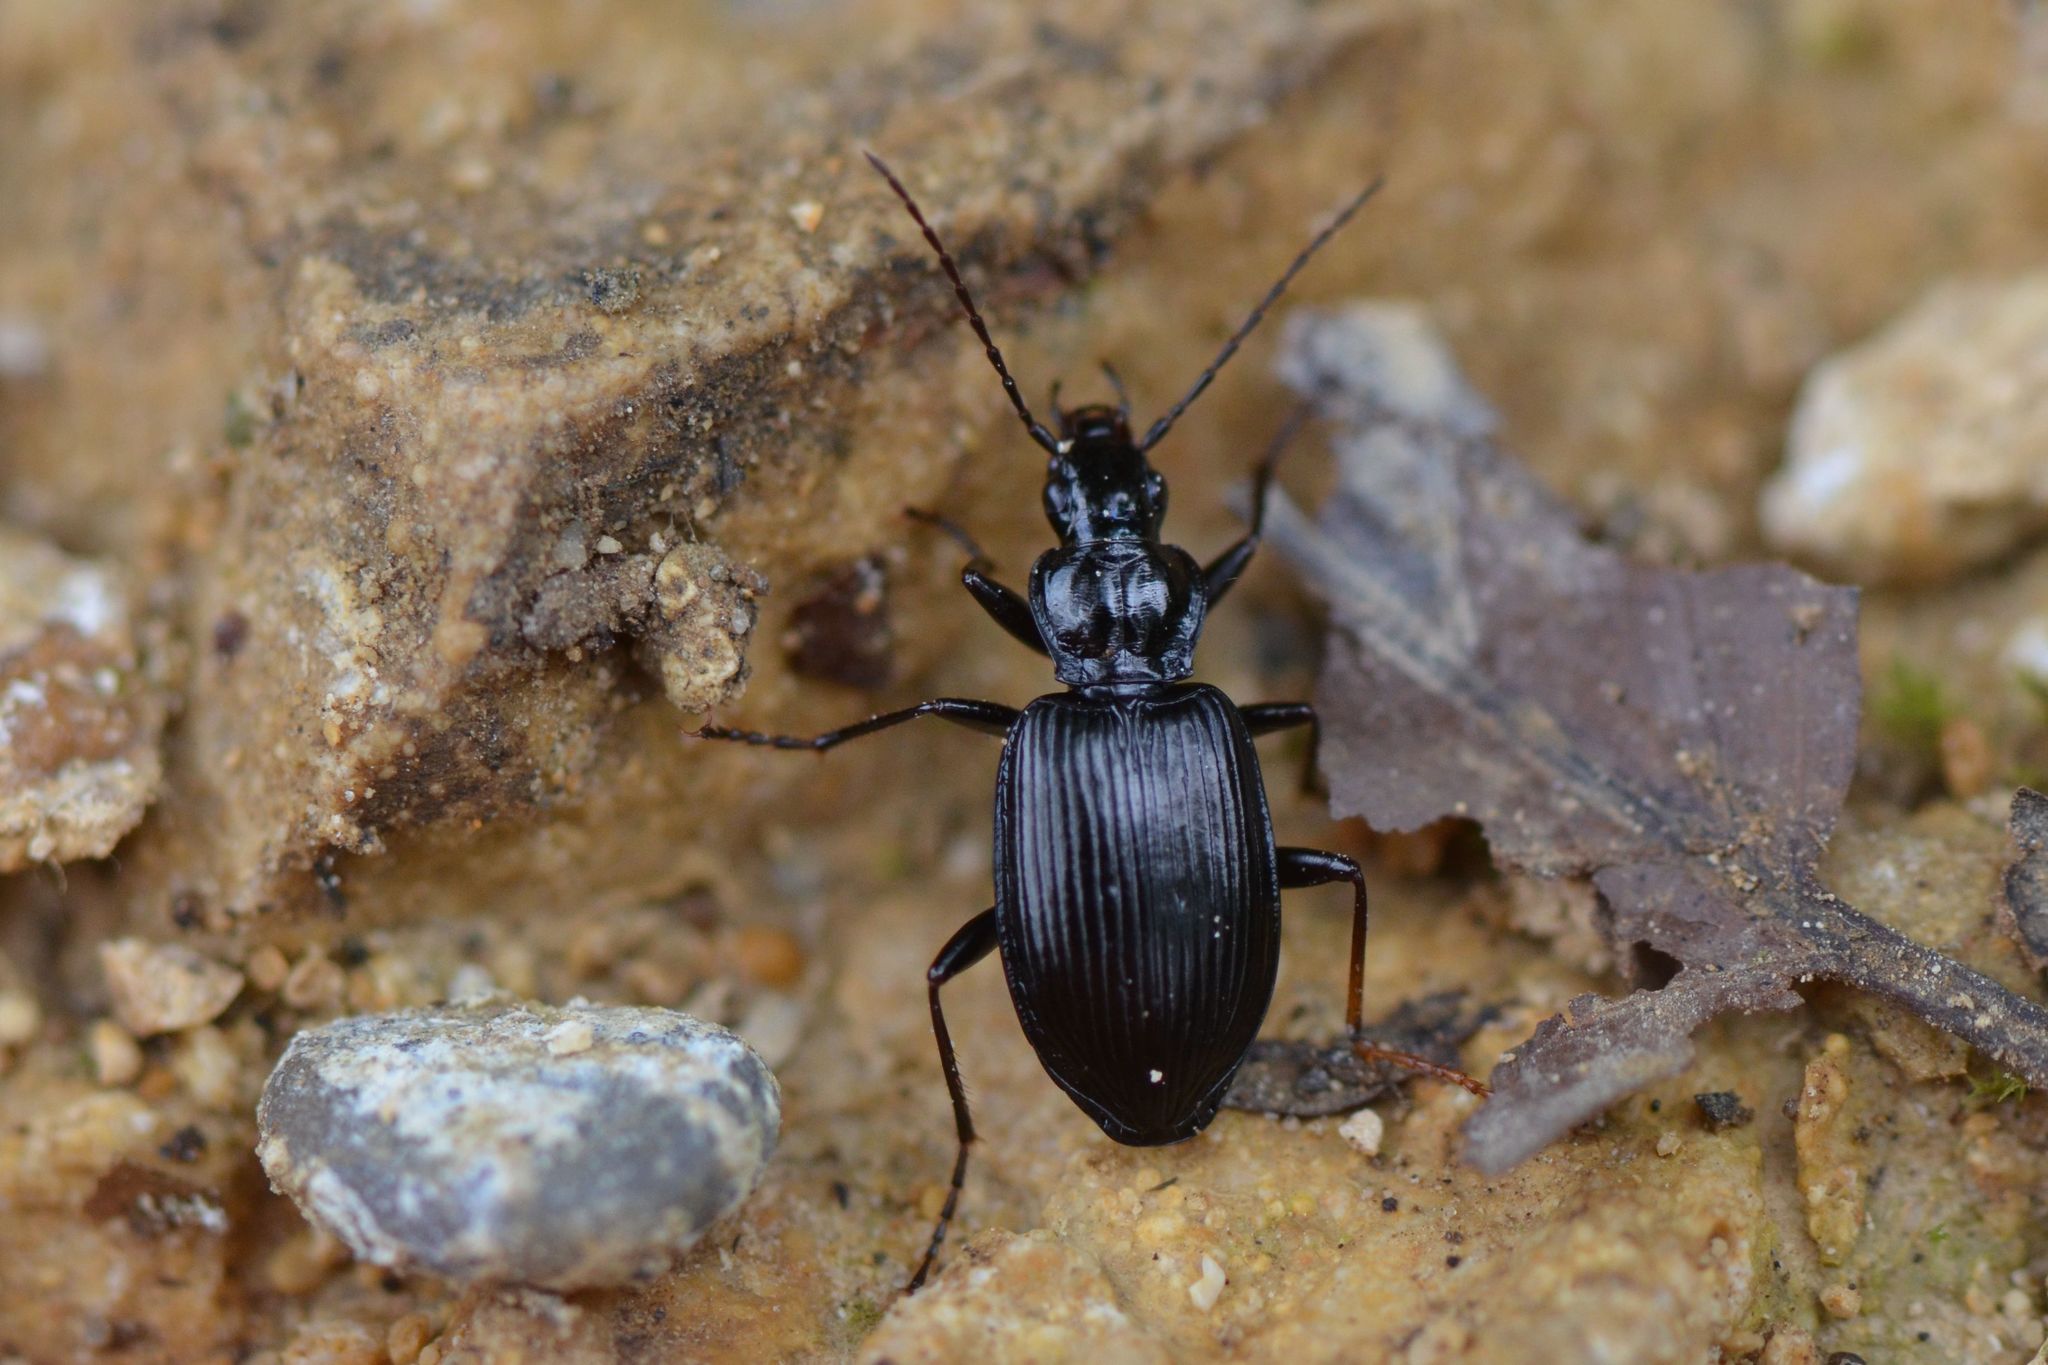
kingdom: Animalia
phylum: Arthropoda
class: Insecta
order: Coleoptera
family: Carabidae
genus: Platynus
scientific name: Platynus assimilis
